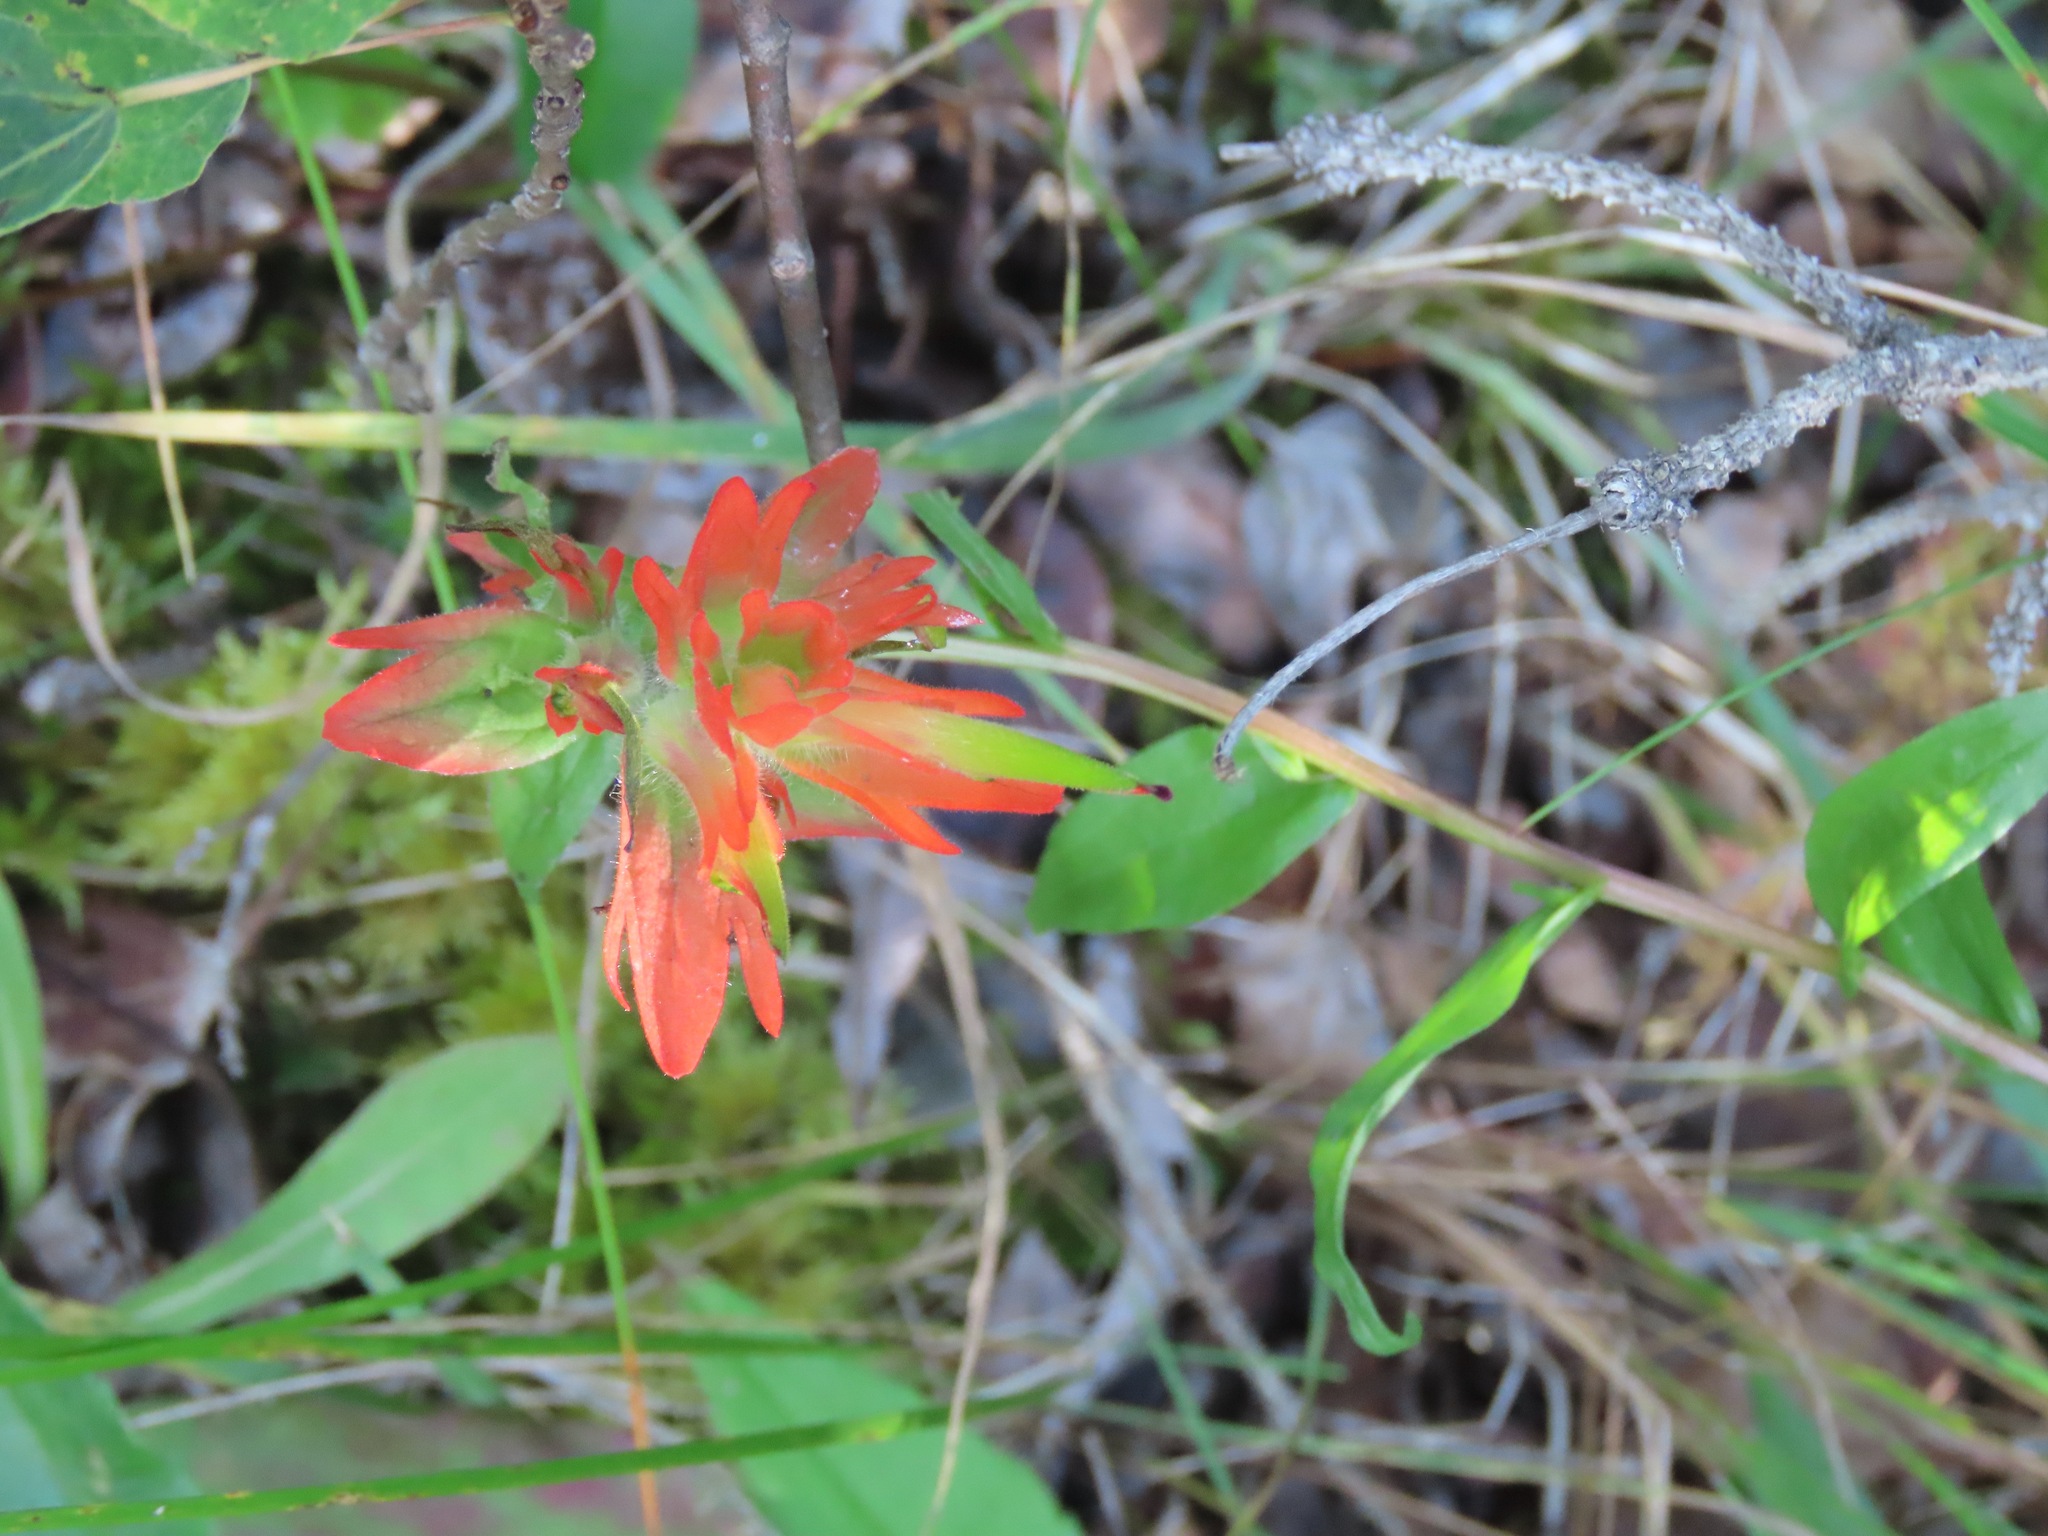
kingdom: Plantae
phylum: Tracheophyta
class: Magnoliopsida
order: Lamiales
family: Orobanchaceae
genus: Castilleja
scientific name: Castilleja miniata
